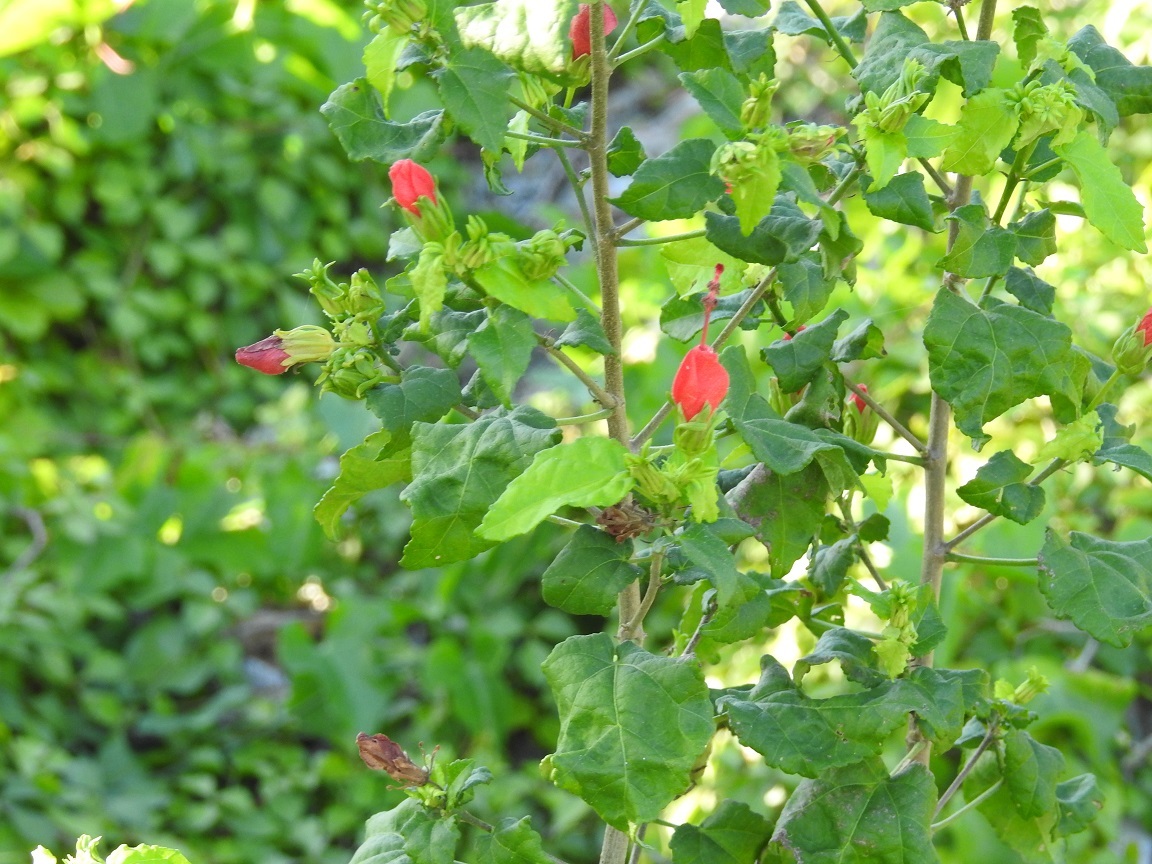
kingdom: Plantae
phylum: Tracheophyta
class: Magnoliopsida
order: Malvales
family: Malvaceae
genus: Malvaviscus
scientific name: Malvaviscus arboreus
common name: Wax mallow
